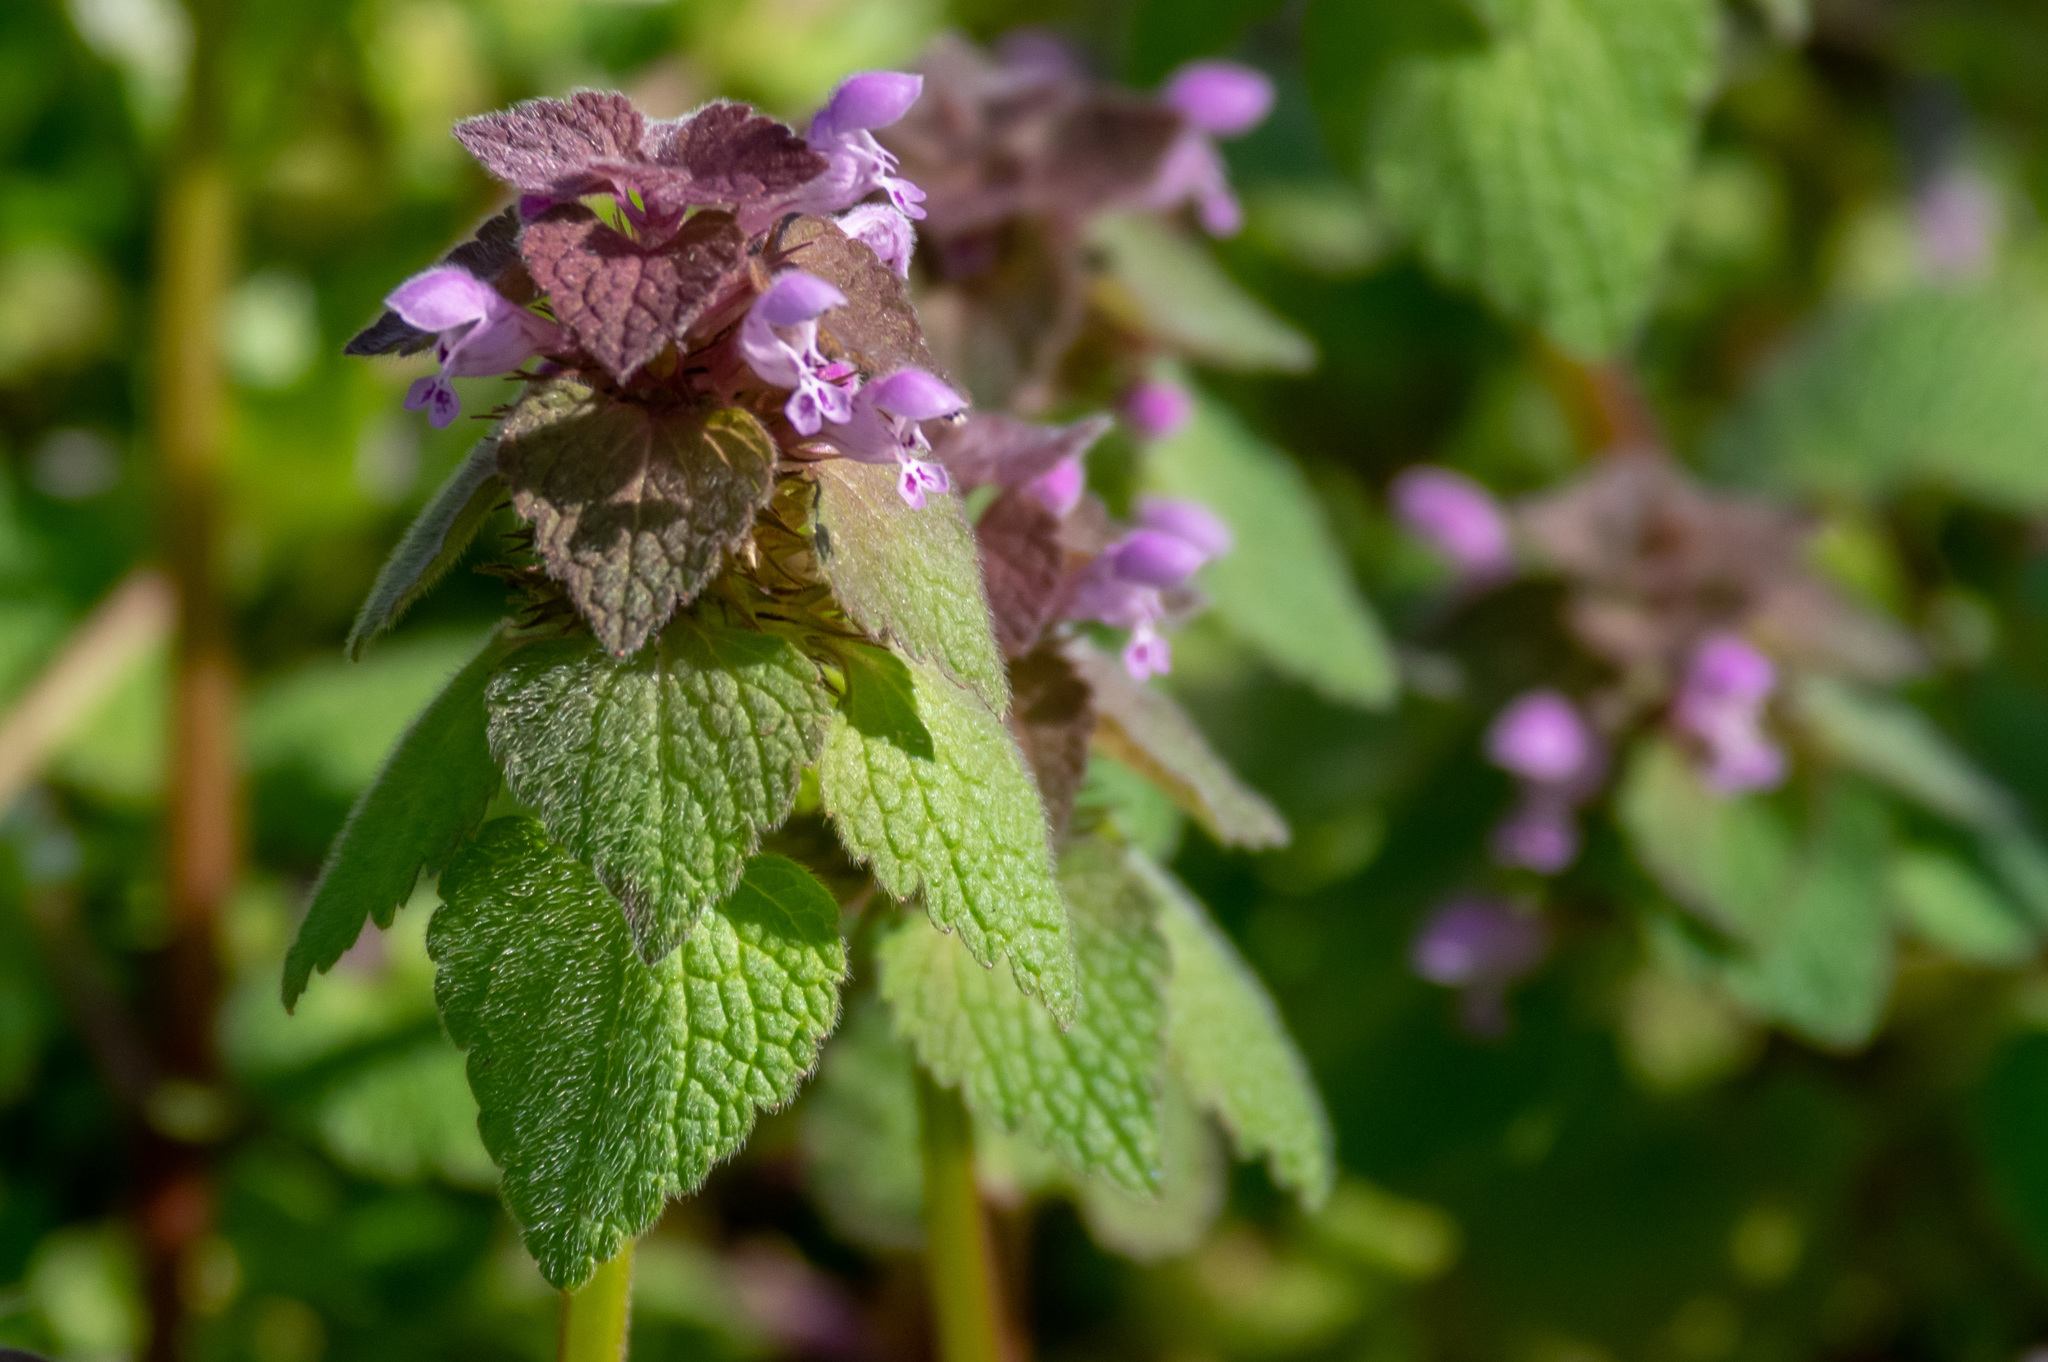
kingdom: Plantae
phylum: Tracheophyta
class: Magnoliopsida
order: Lamiales
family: Lamiaceae
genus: Lamium
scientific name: Lamium purpureum
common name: Red dead-nettle
